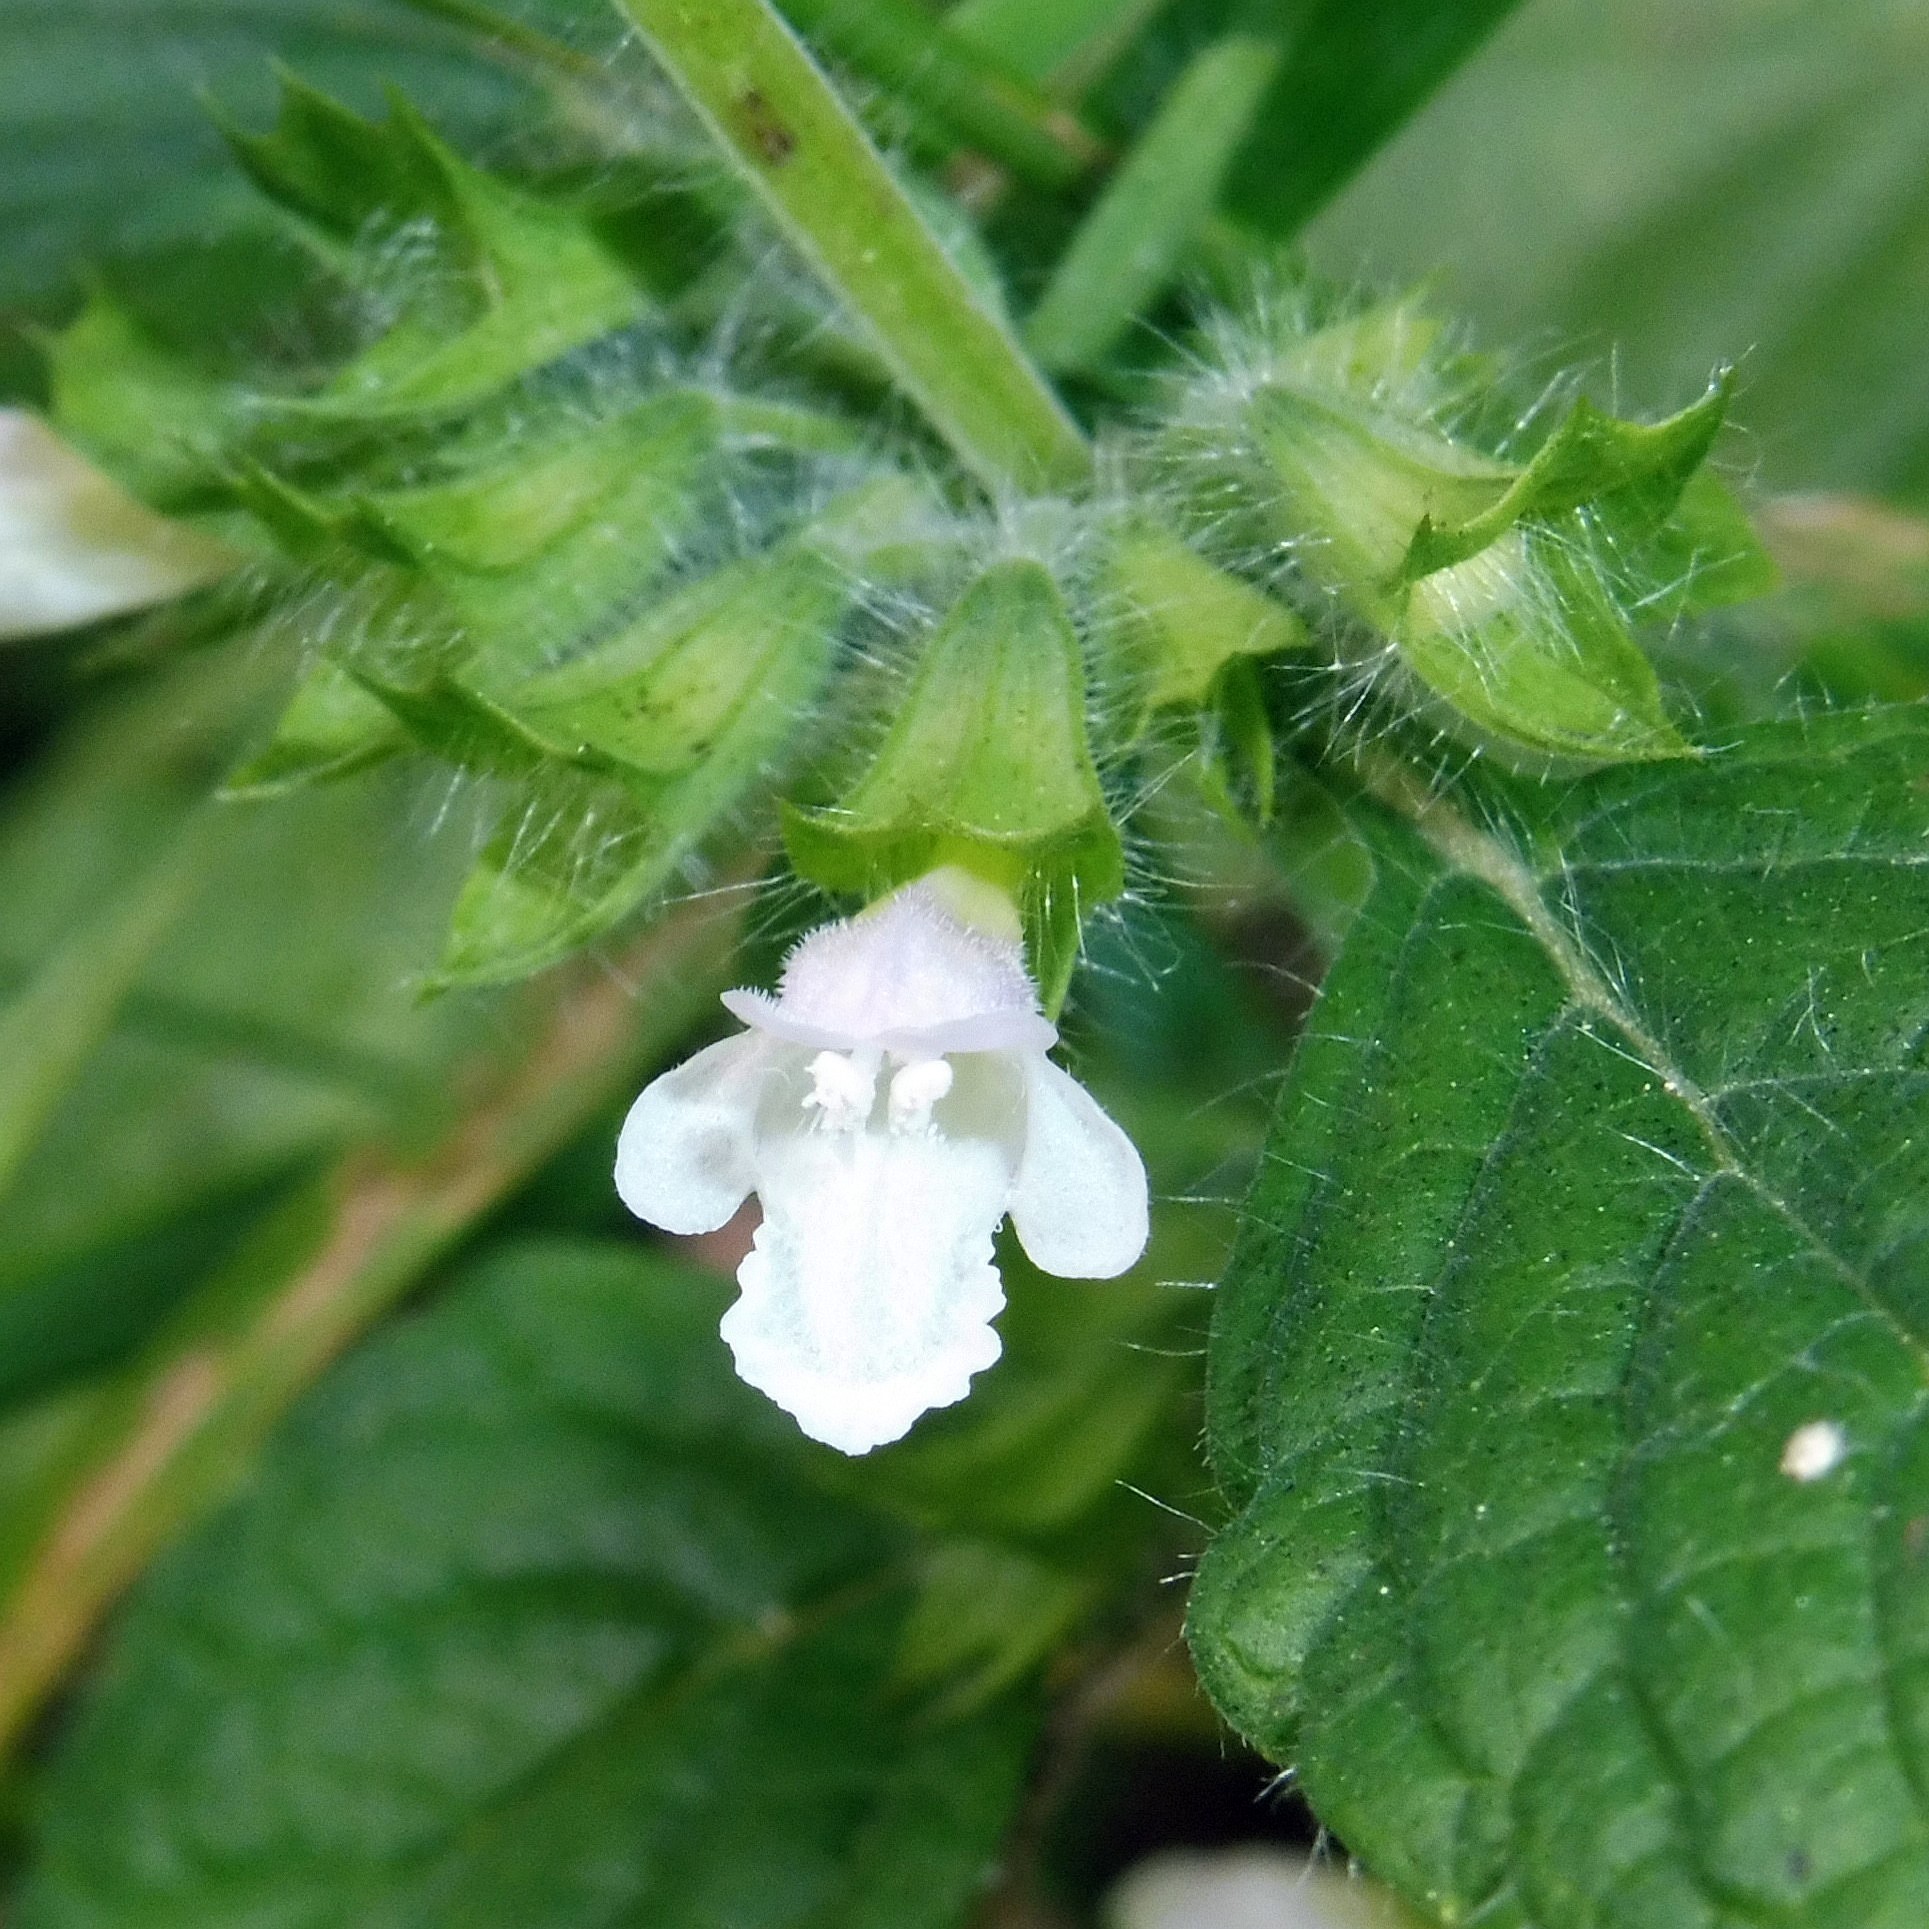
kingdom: Plantae
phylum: Tracheophyta
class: Magnoliopsida
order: Lamiales
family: Lamiaceae
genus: Melissa
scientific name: Melissa officinalis
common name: Balm
